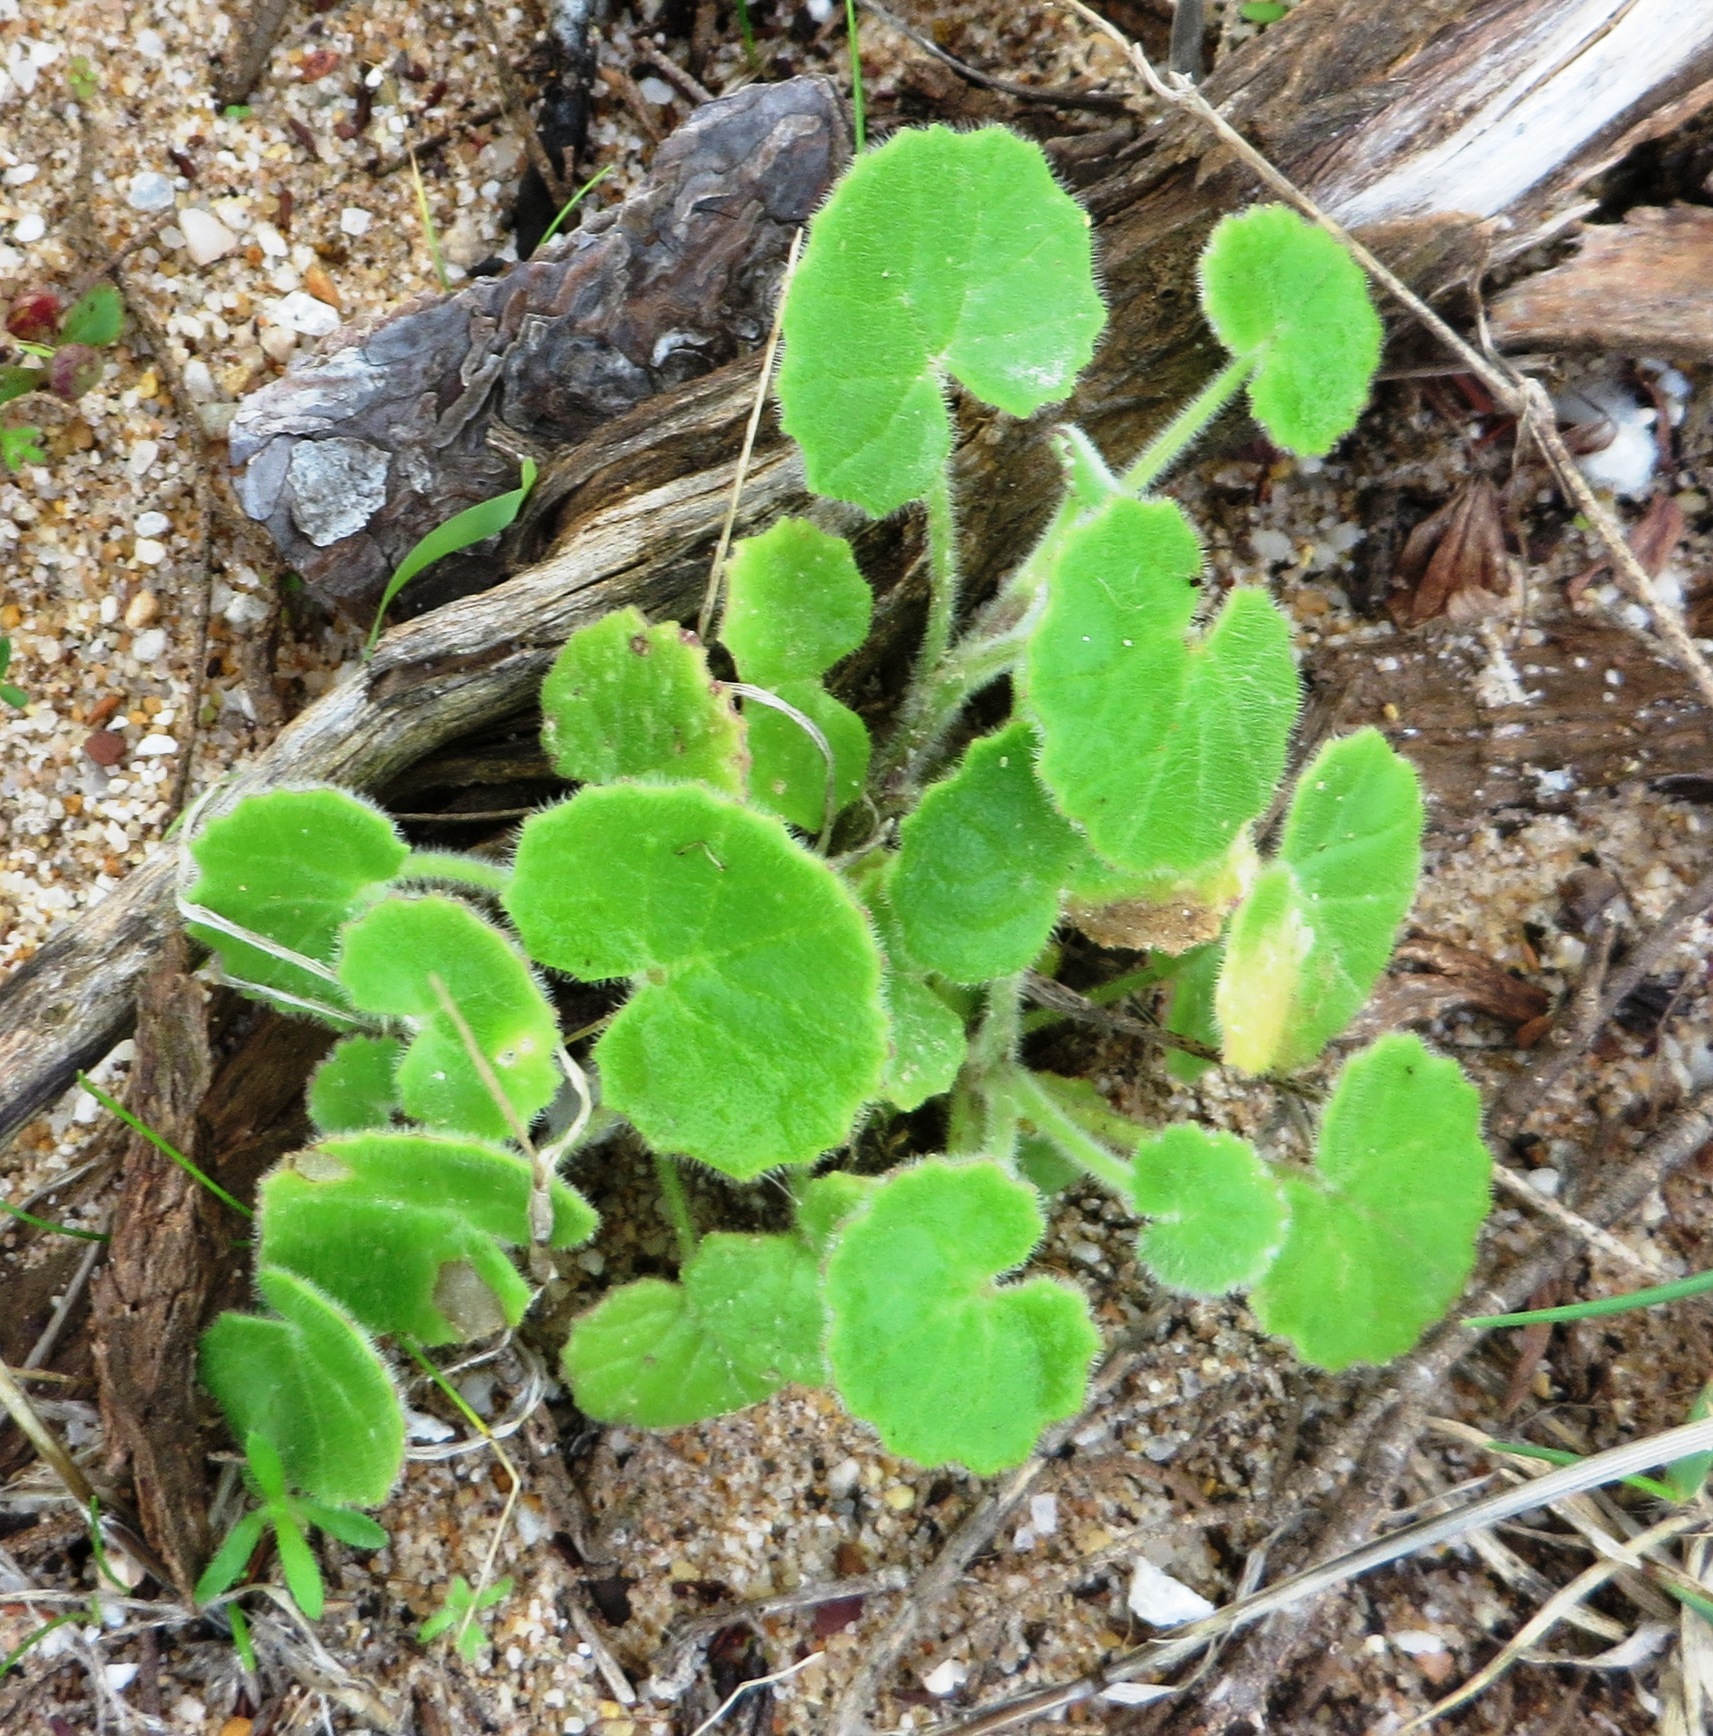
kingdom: Plantae
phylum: Tracheophyta
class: Magnoliopsida
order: Asterales
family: Asteraceae
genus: Cineraria
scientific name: Cineraria geifolia
